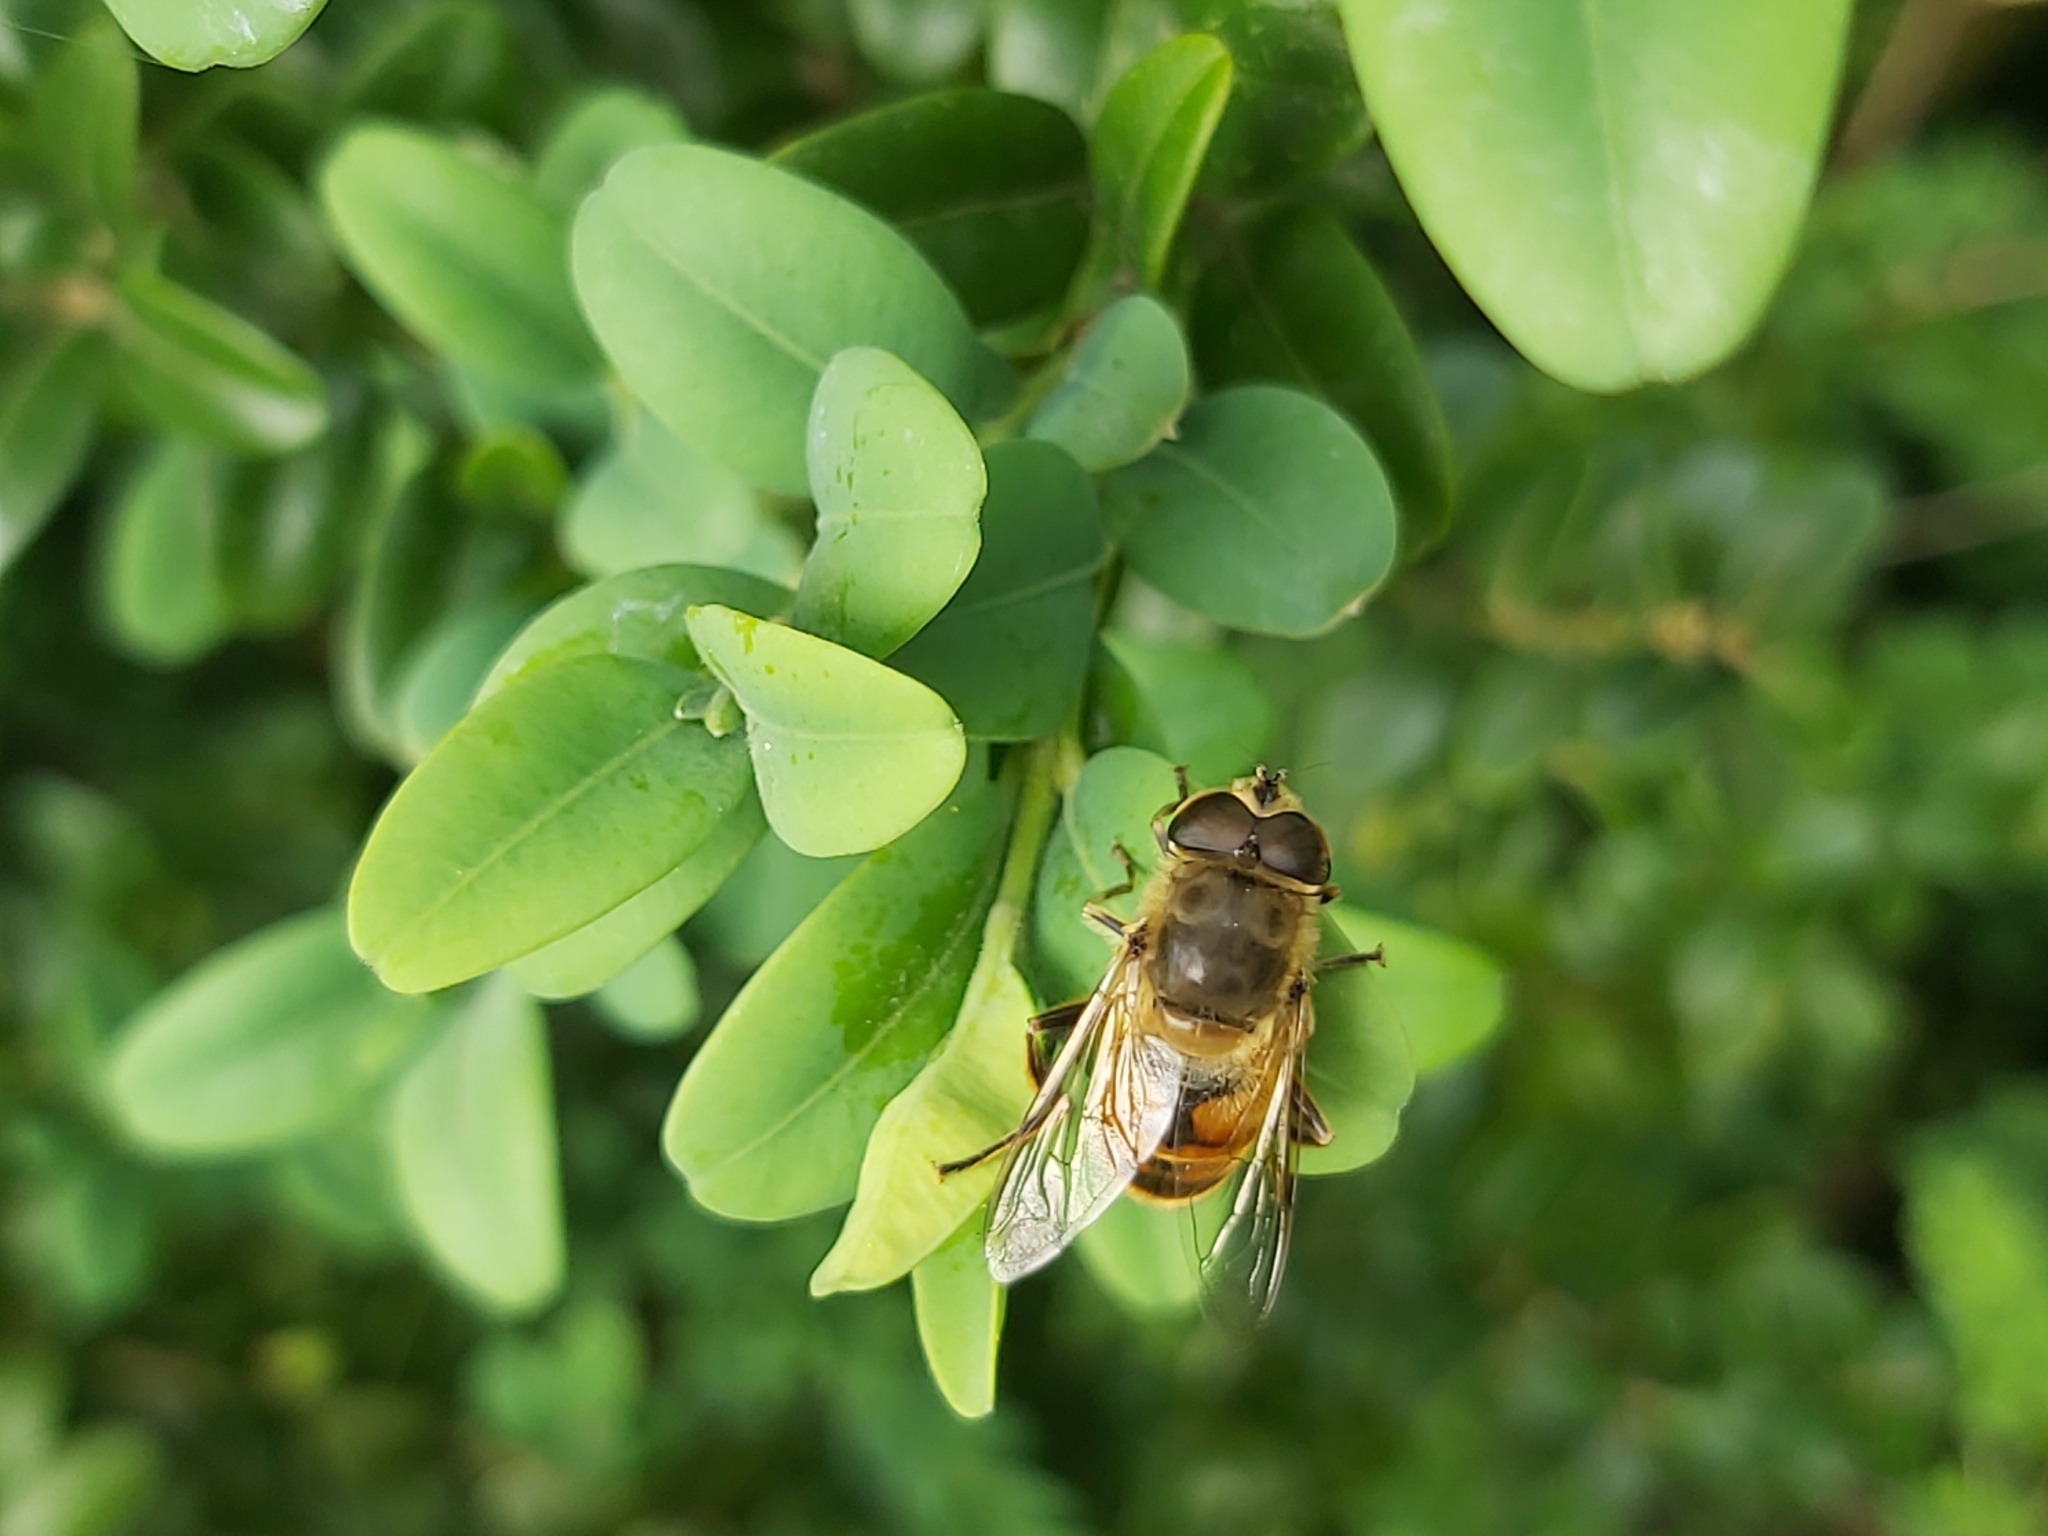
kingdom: Animalia
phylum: Arthropoda
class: Insecta
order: Diptera
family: Syrphidae
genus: Eristalis
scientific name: Eristalis tenax
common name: Drone fly
